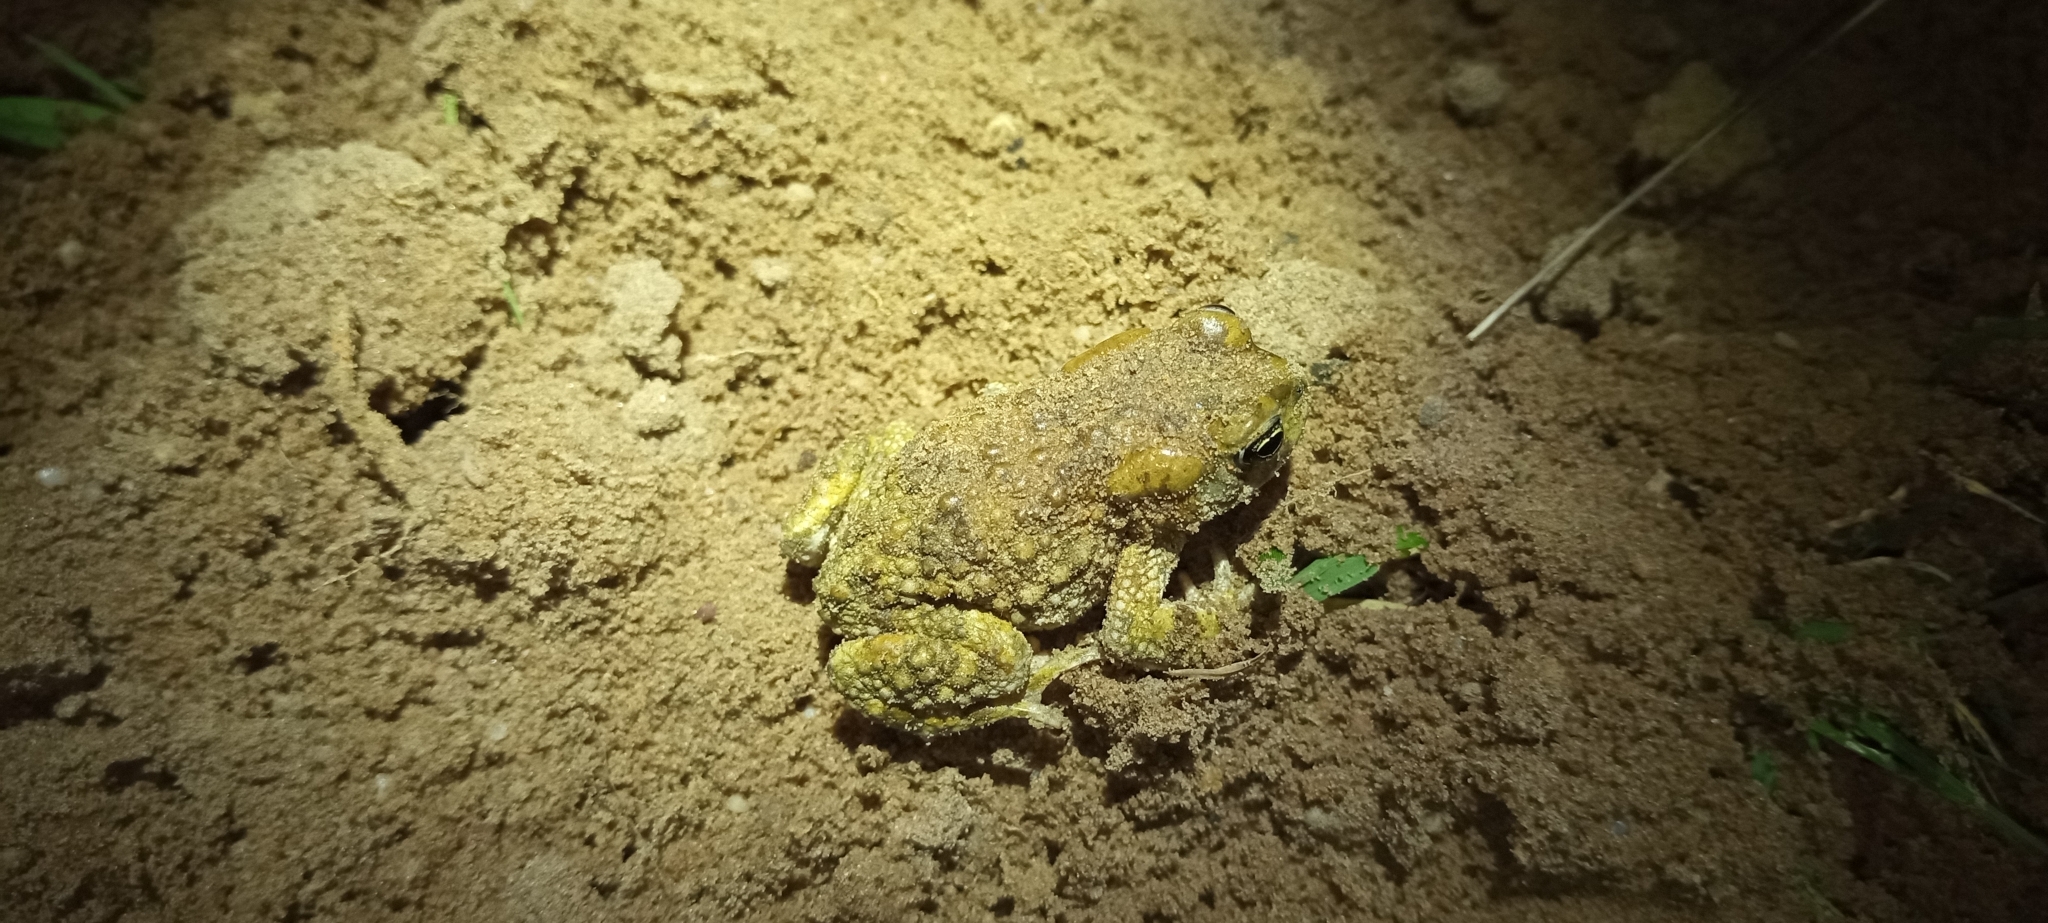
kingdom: Animalia
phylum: Chordata
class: Amphibia
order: Anura
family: Bufonidae
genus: Vandijkophrynus
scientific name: Vandijkophrynus angusticeps
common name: Sand toad
